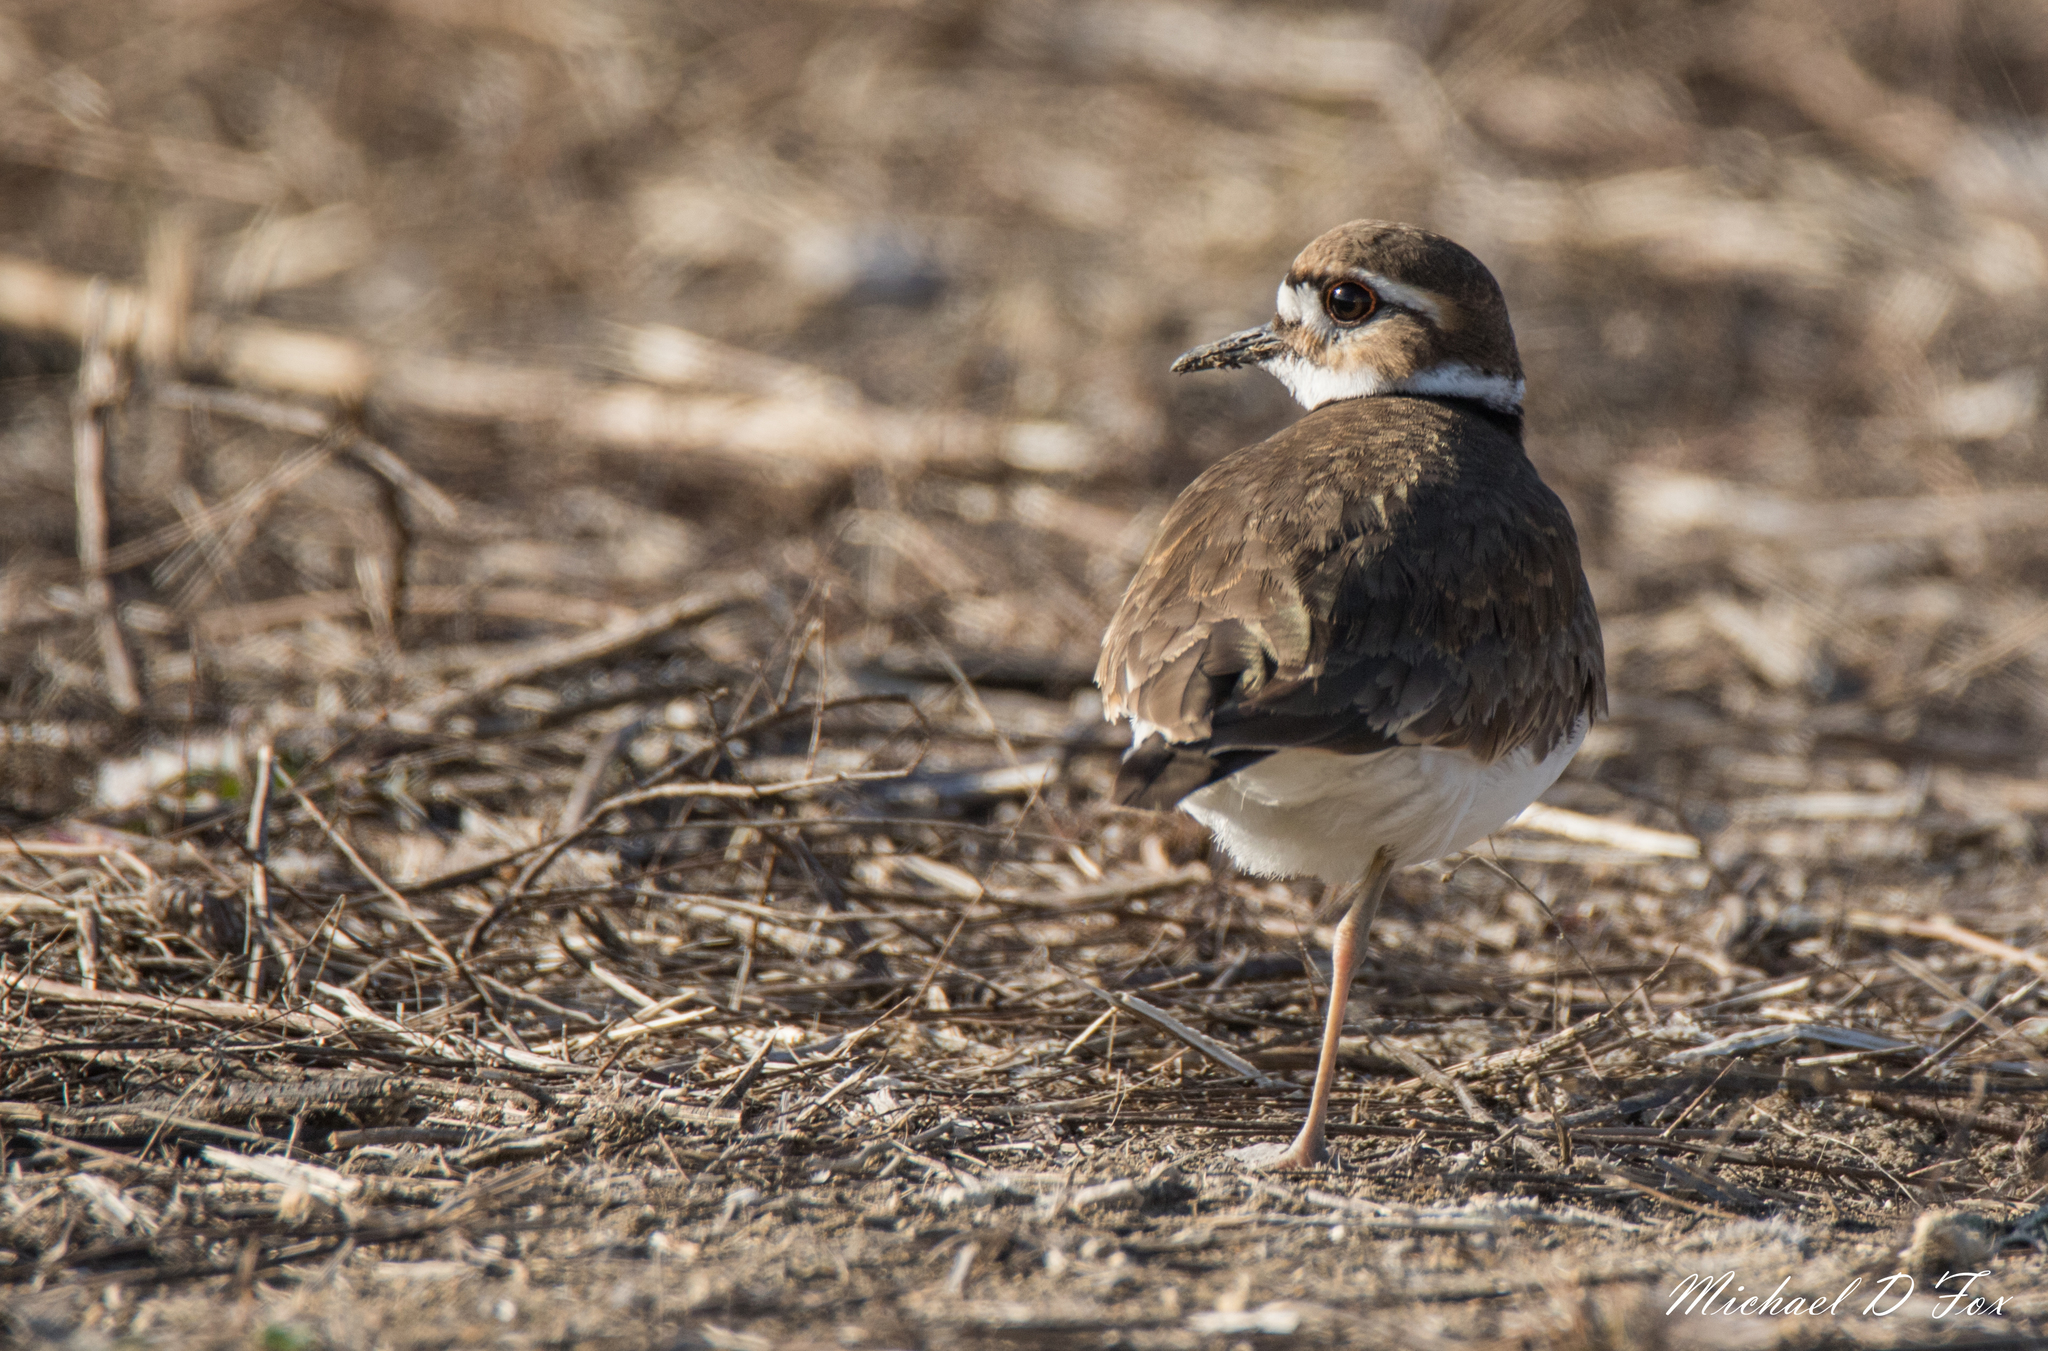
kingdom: Animalia
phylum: Chordata
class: Aves
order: Charadriiformes
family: Charadriidae
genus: Charadrius
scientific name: Charadrius vociferus
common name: Killdeer
